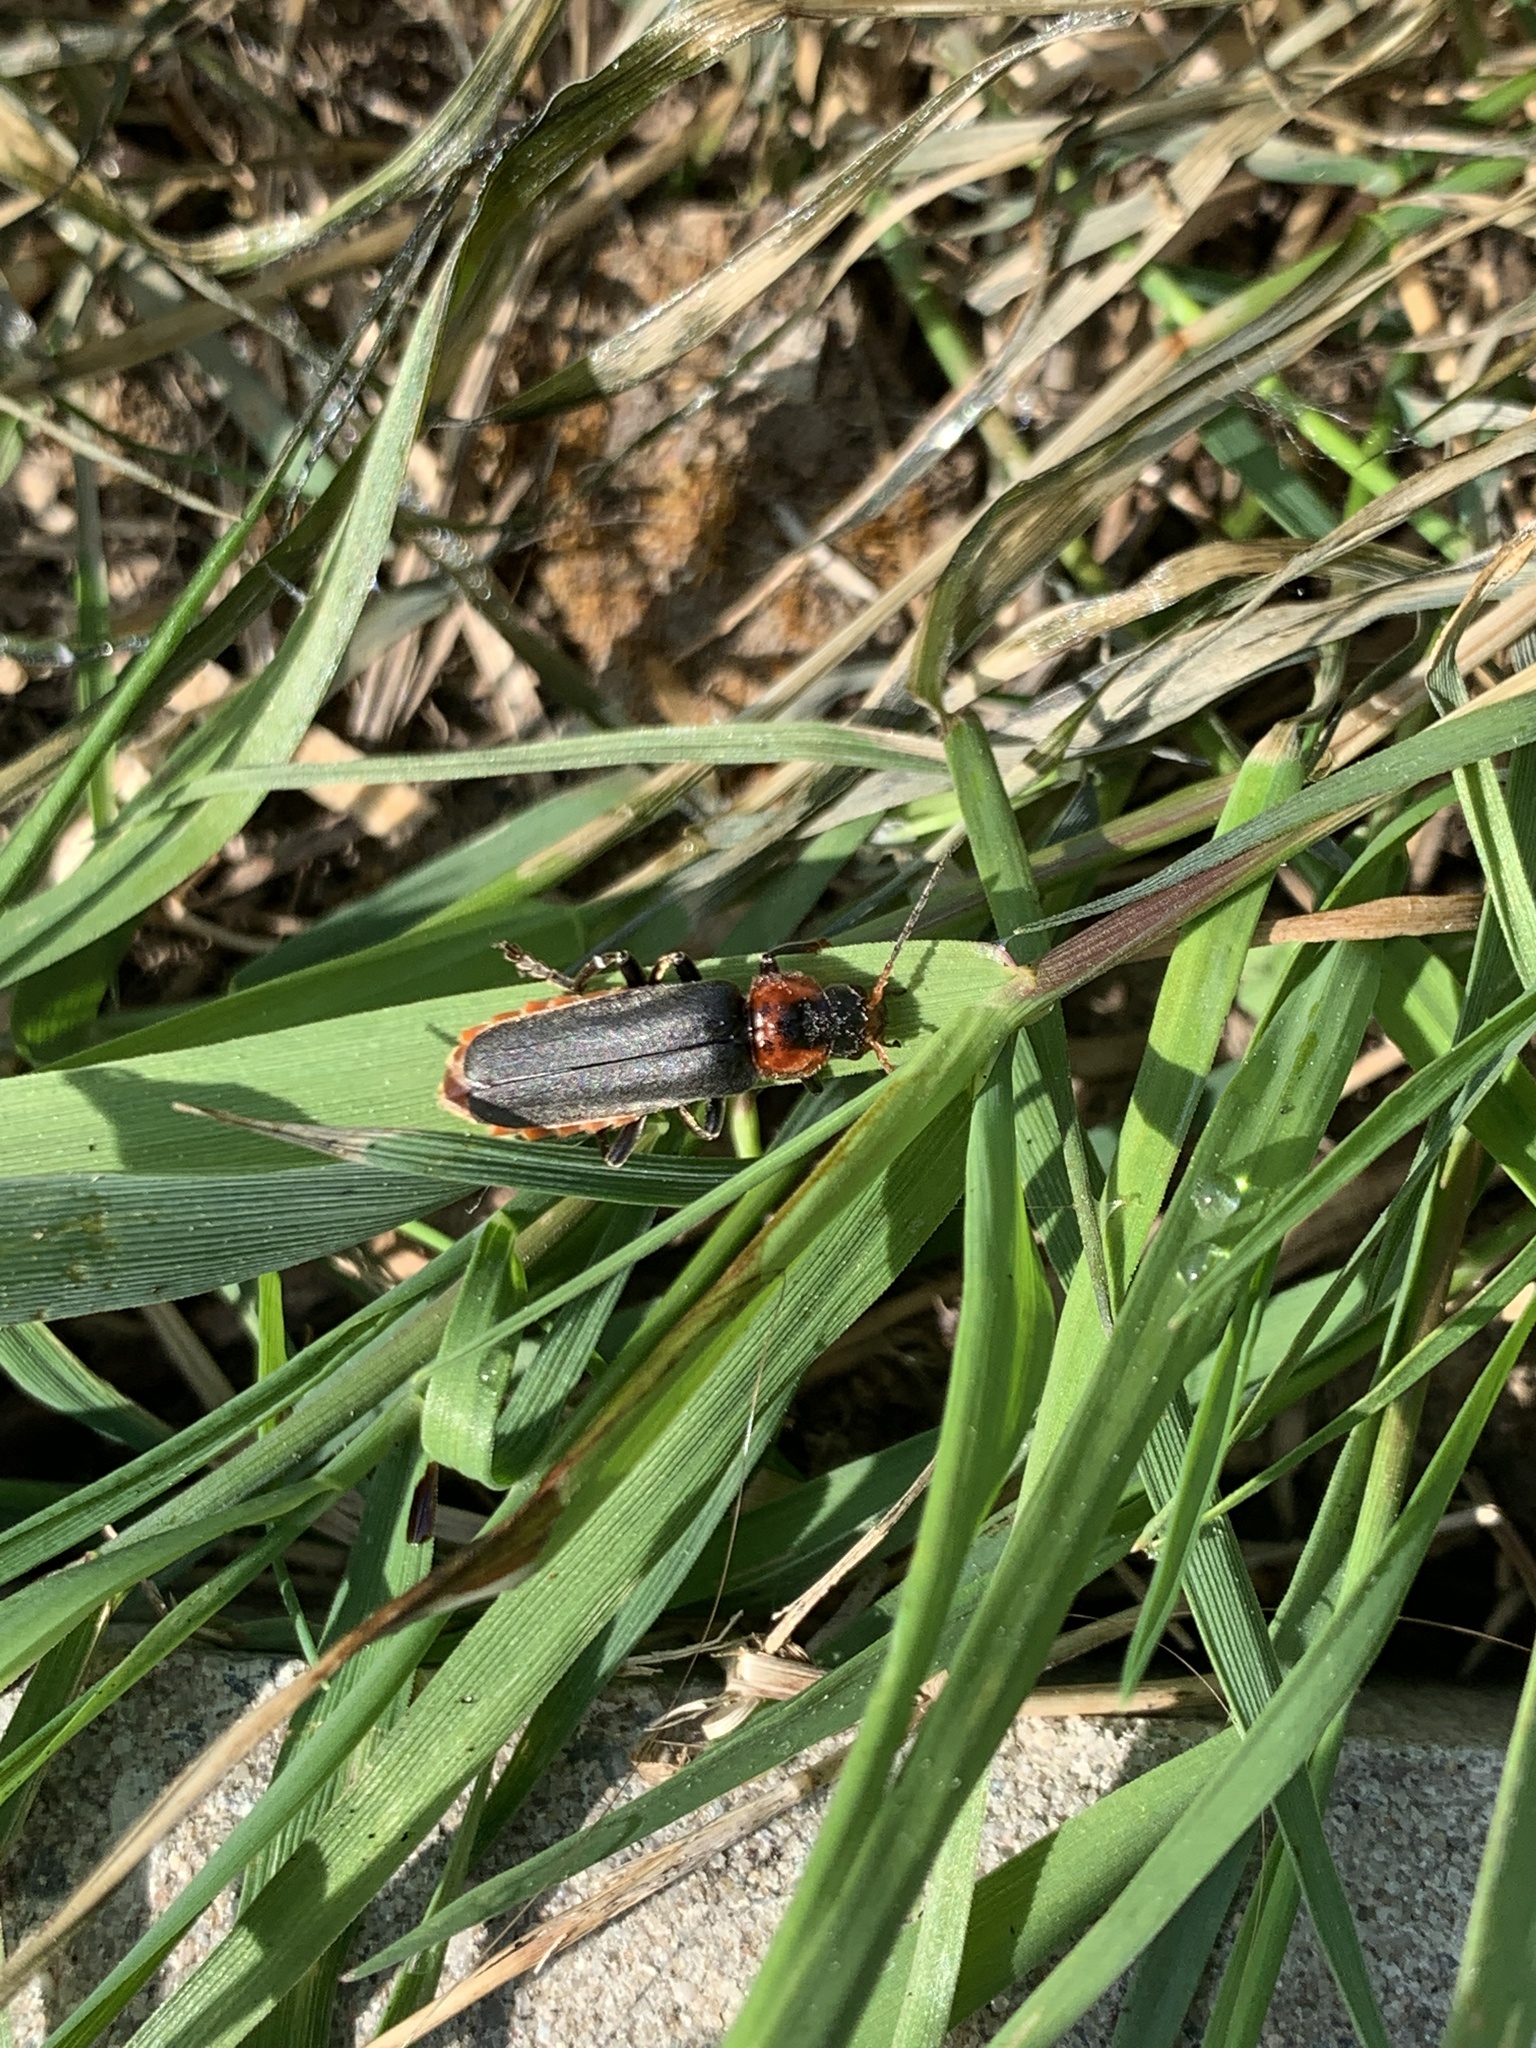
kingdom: Animalia
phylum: Arthropoda
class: Insecta
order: Coleoptera
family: Cantharidae
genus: Cantharis
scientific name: Cantharis fusca
